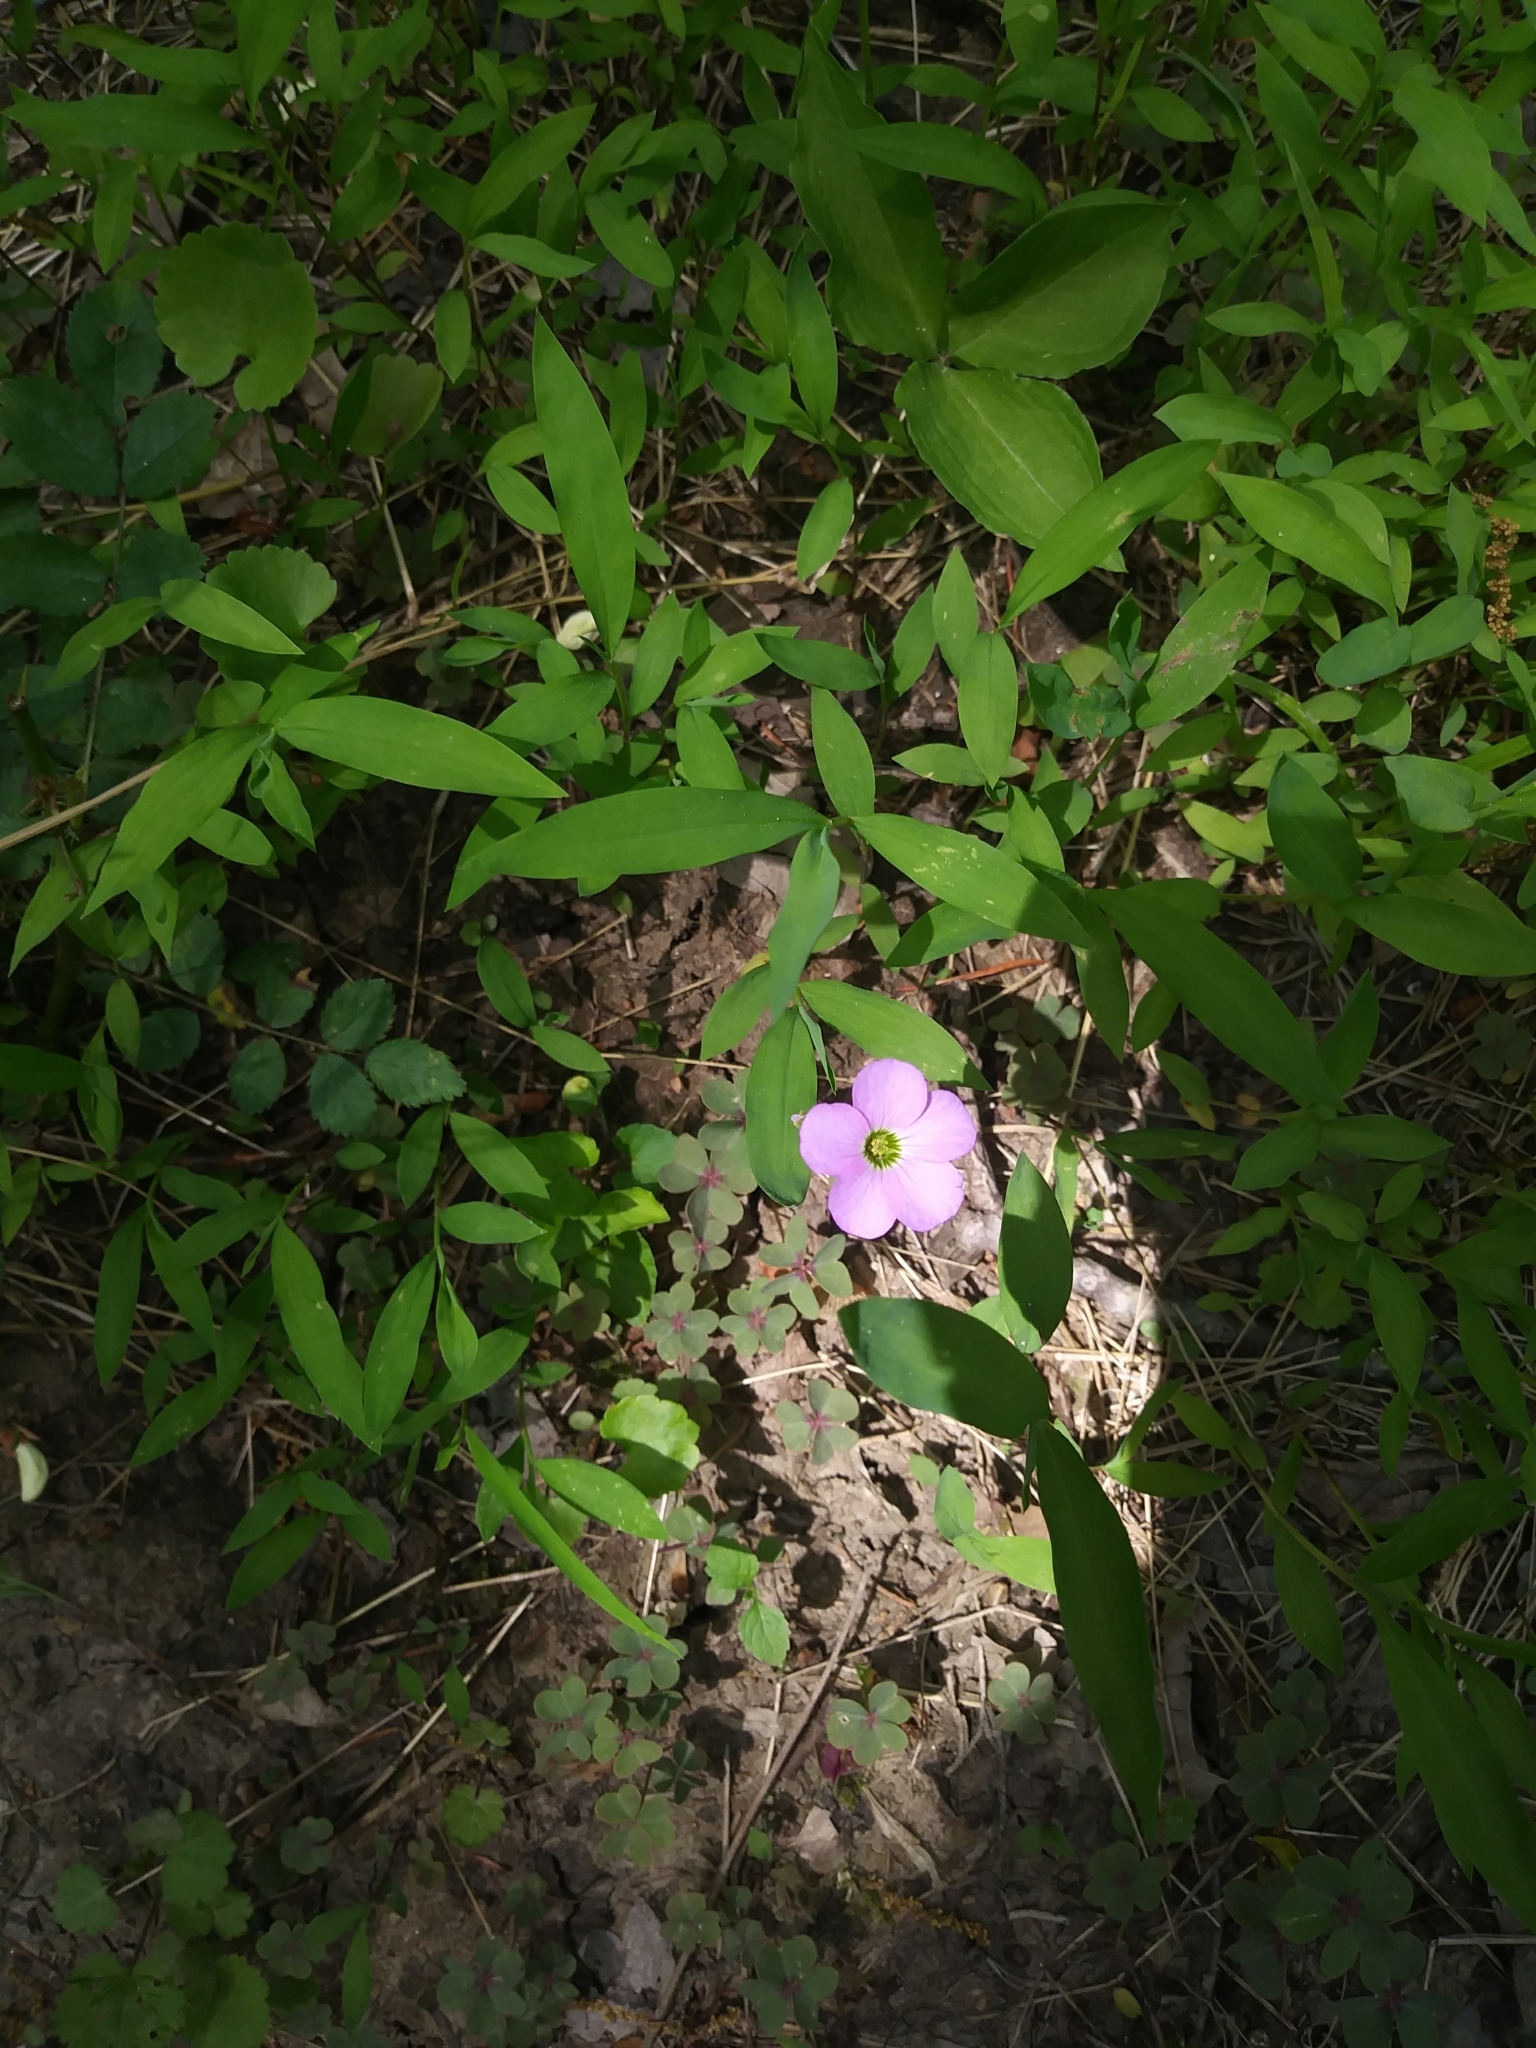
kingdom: Plantae
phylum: Tracheophyta
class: Magnoliopsida
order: Oxalidales
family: Oxalidaceae
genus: Oxalis
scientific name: Oxalis violacea
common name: Violet wood-sorrel
